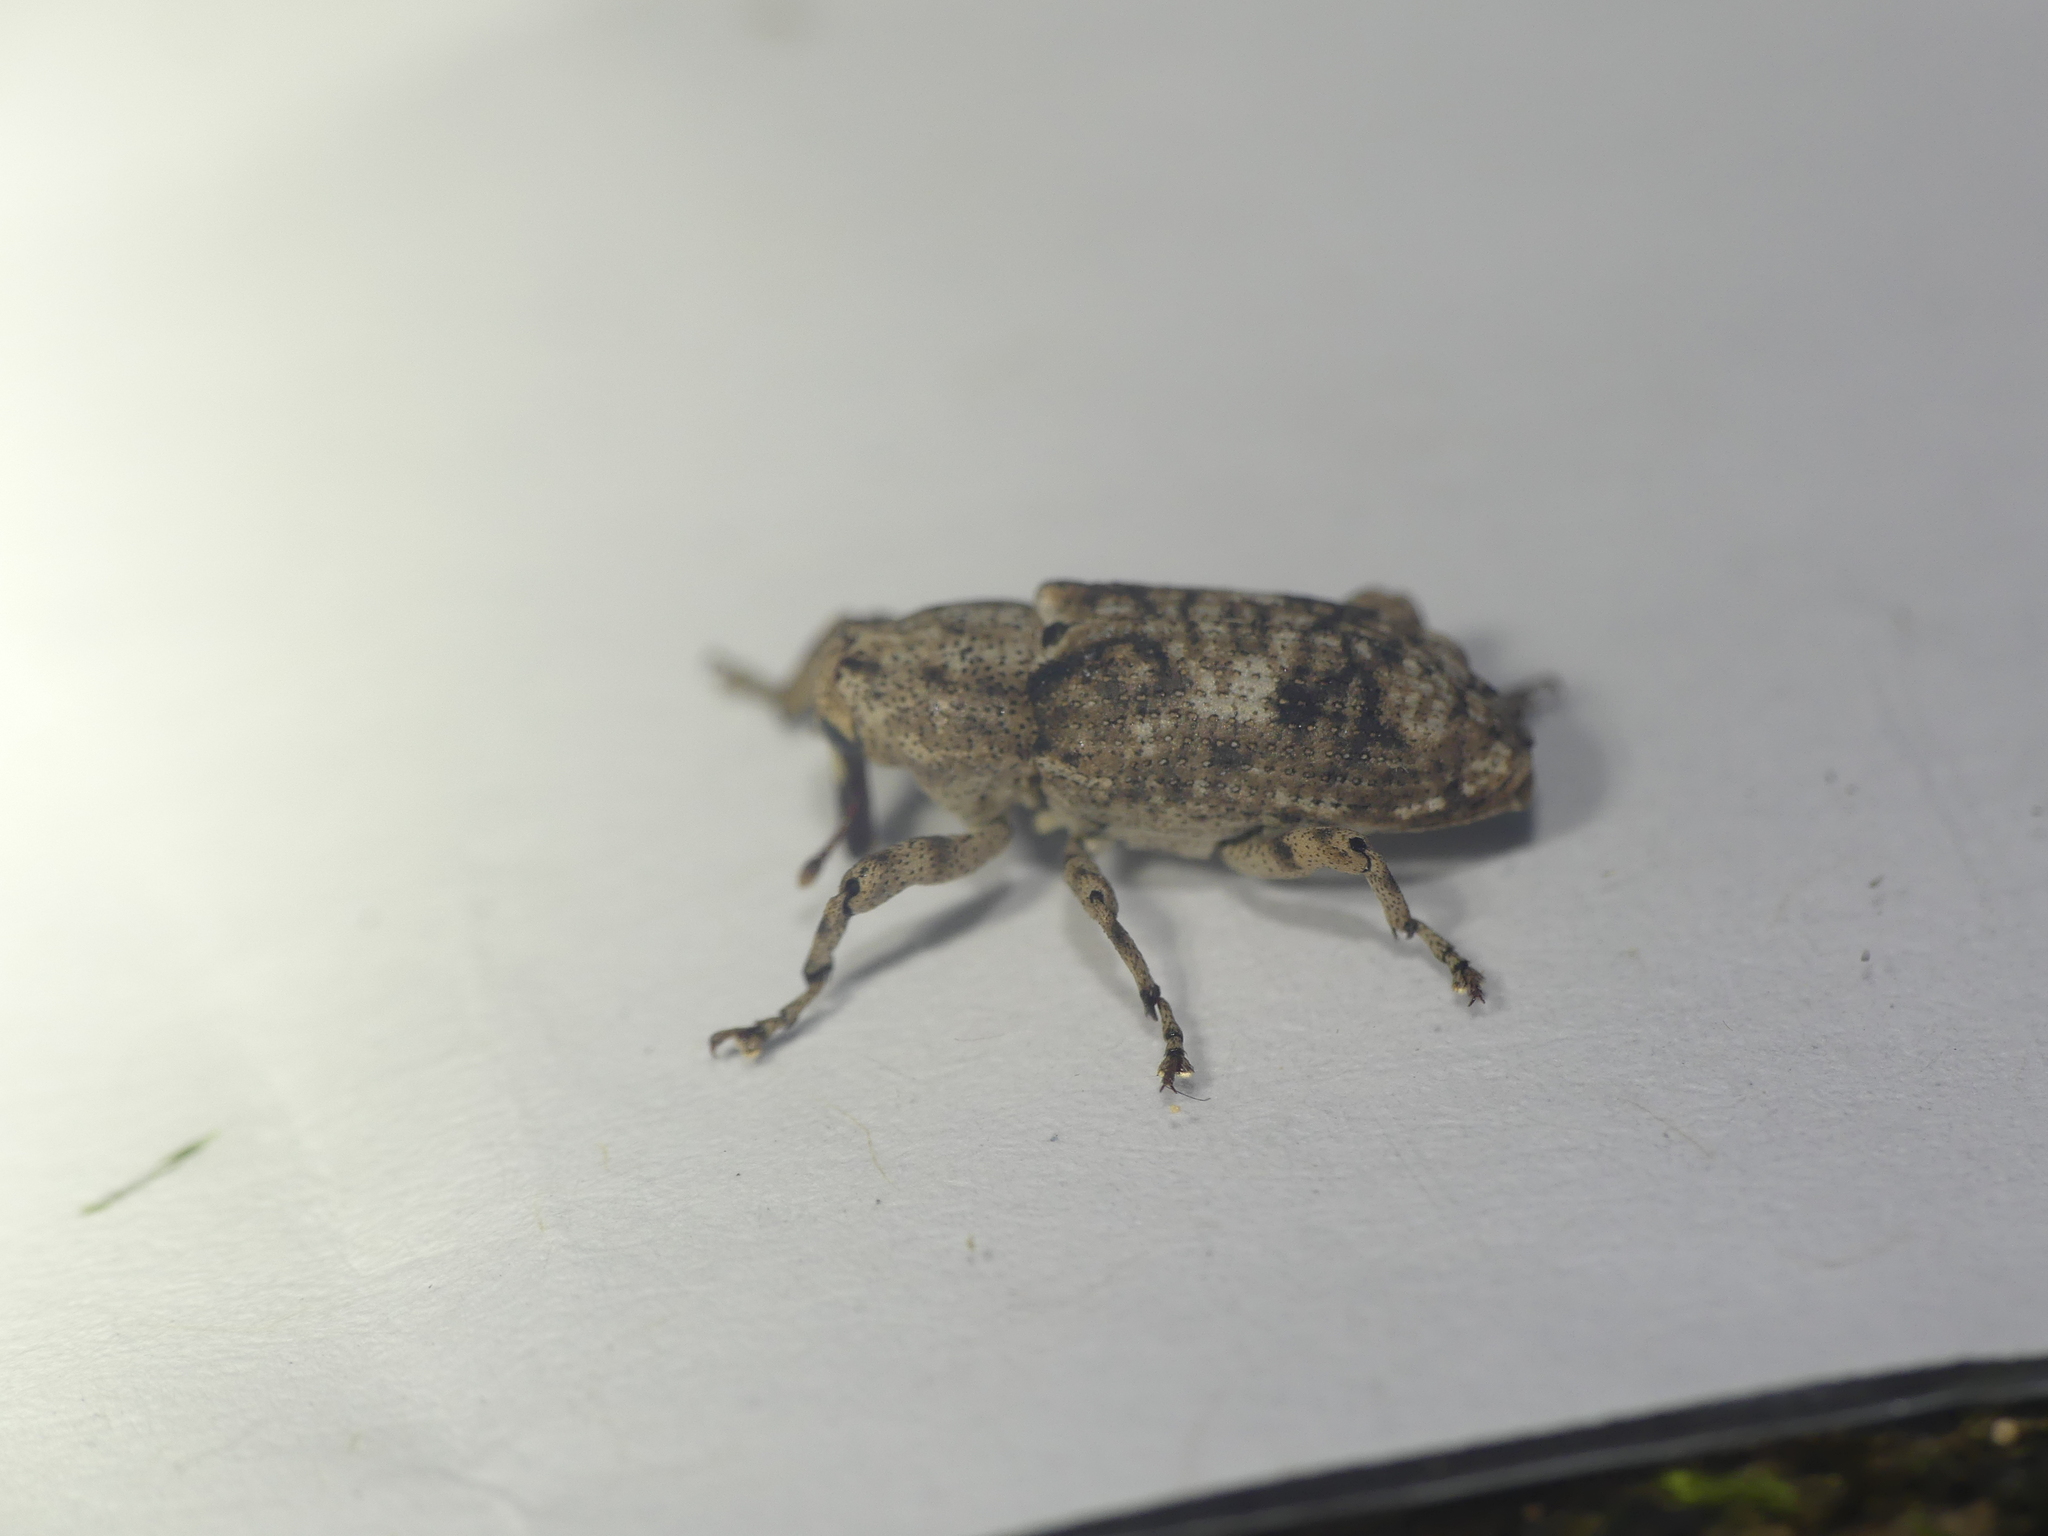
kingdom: Animalia
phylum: Arthropoda
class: Insecta
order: Coleoptera
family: Curculionidae
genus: Gasterocercus
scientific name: Gasterocercus depressirostris
